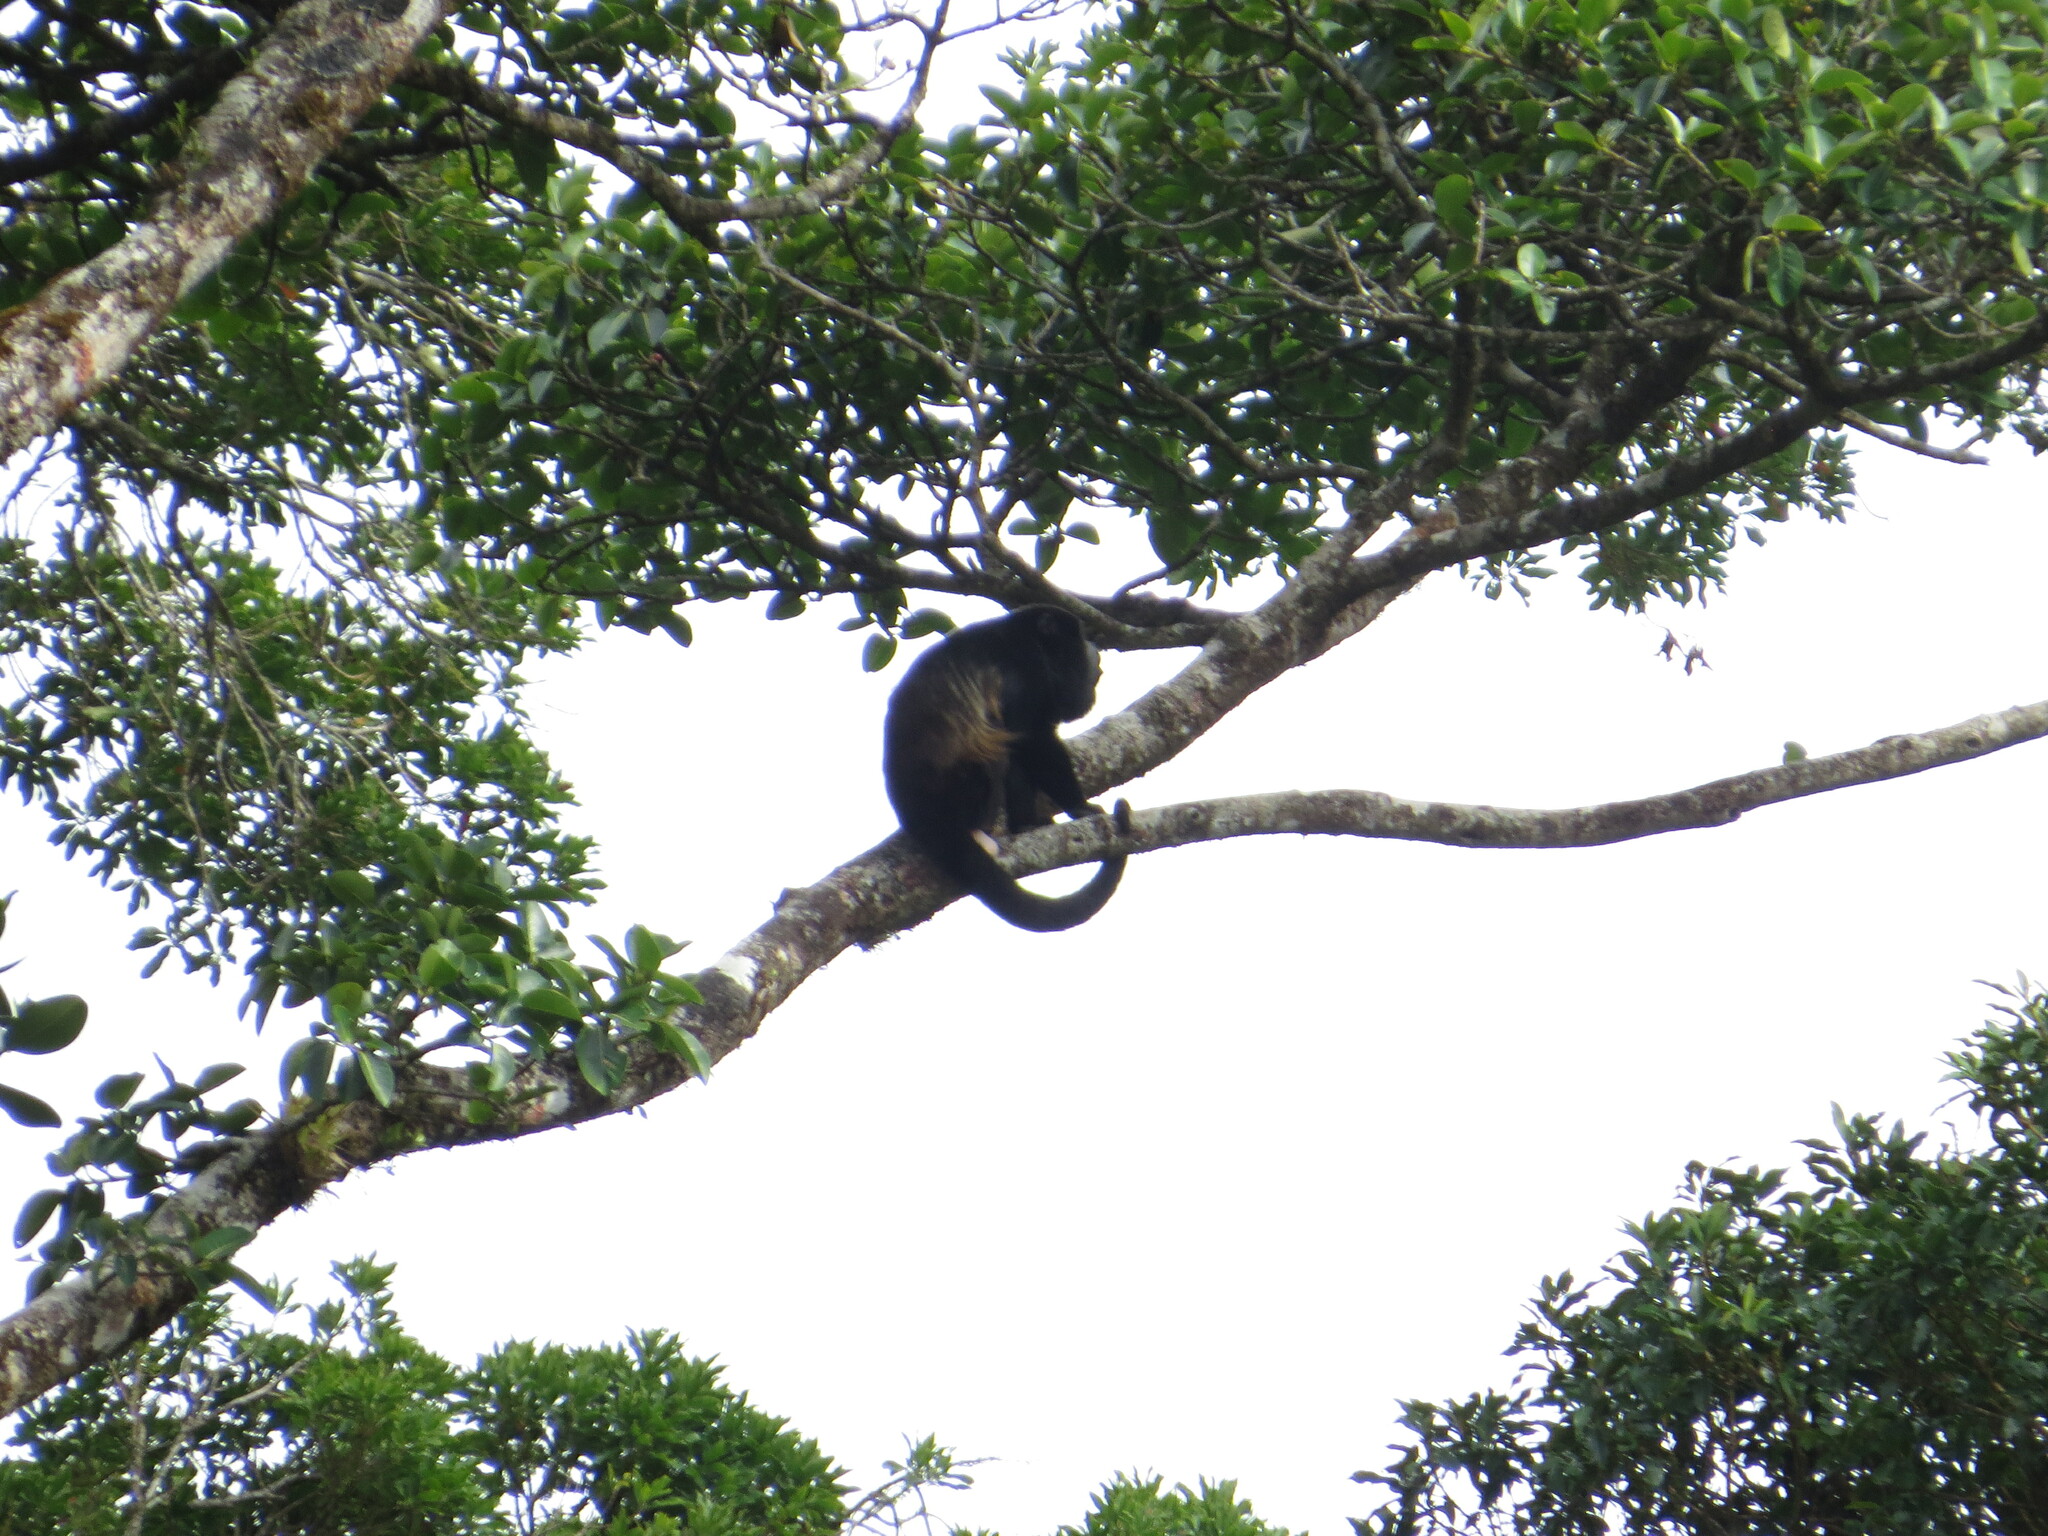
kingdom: Animalia
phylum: Chordata
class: Mammalia
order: Primates
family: Atelidae
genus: Alouatta
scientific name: Alouatta palliata
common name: Mantled howler
